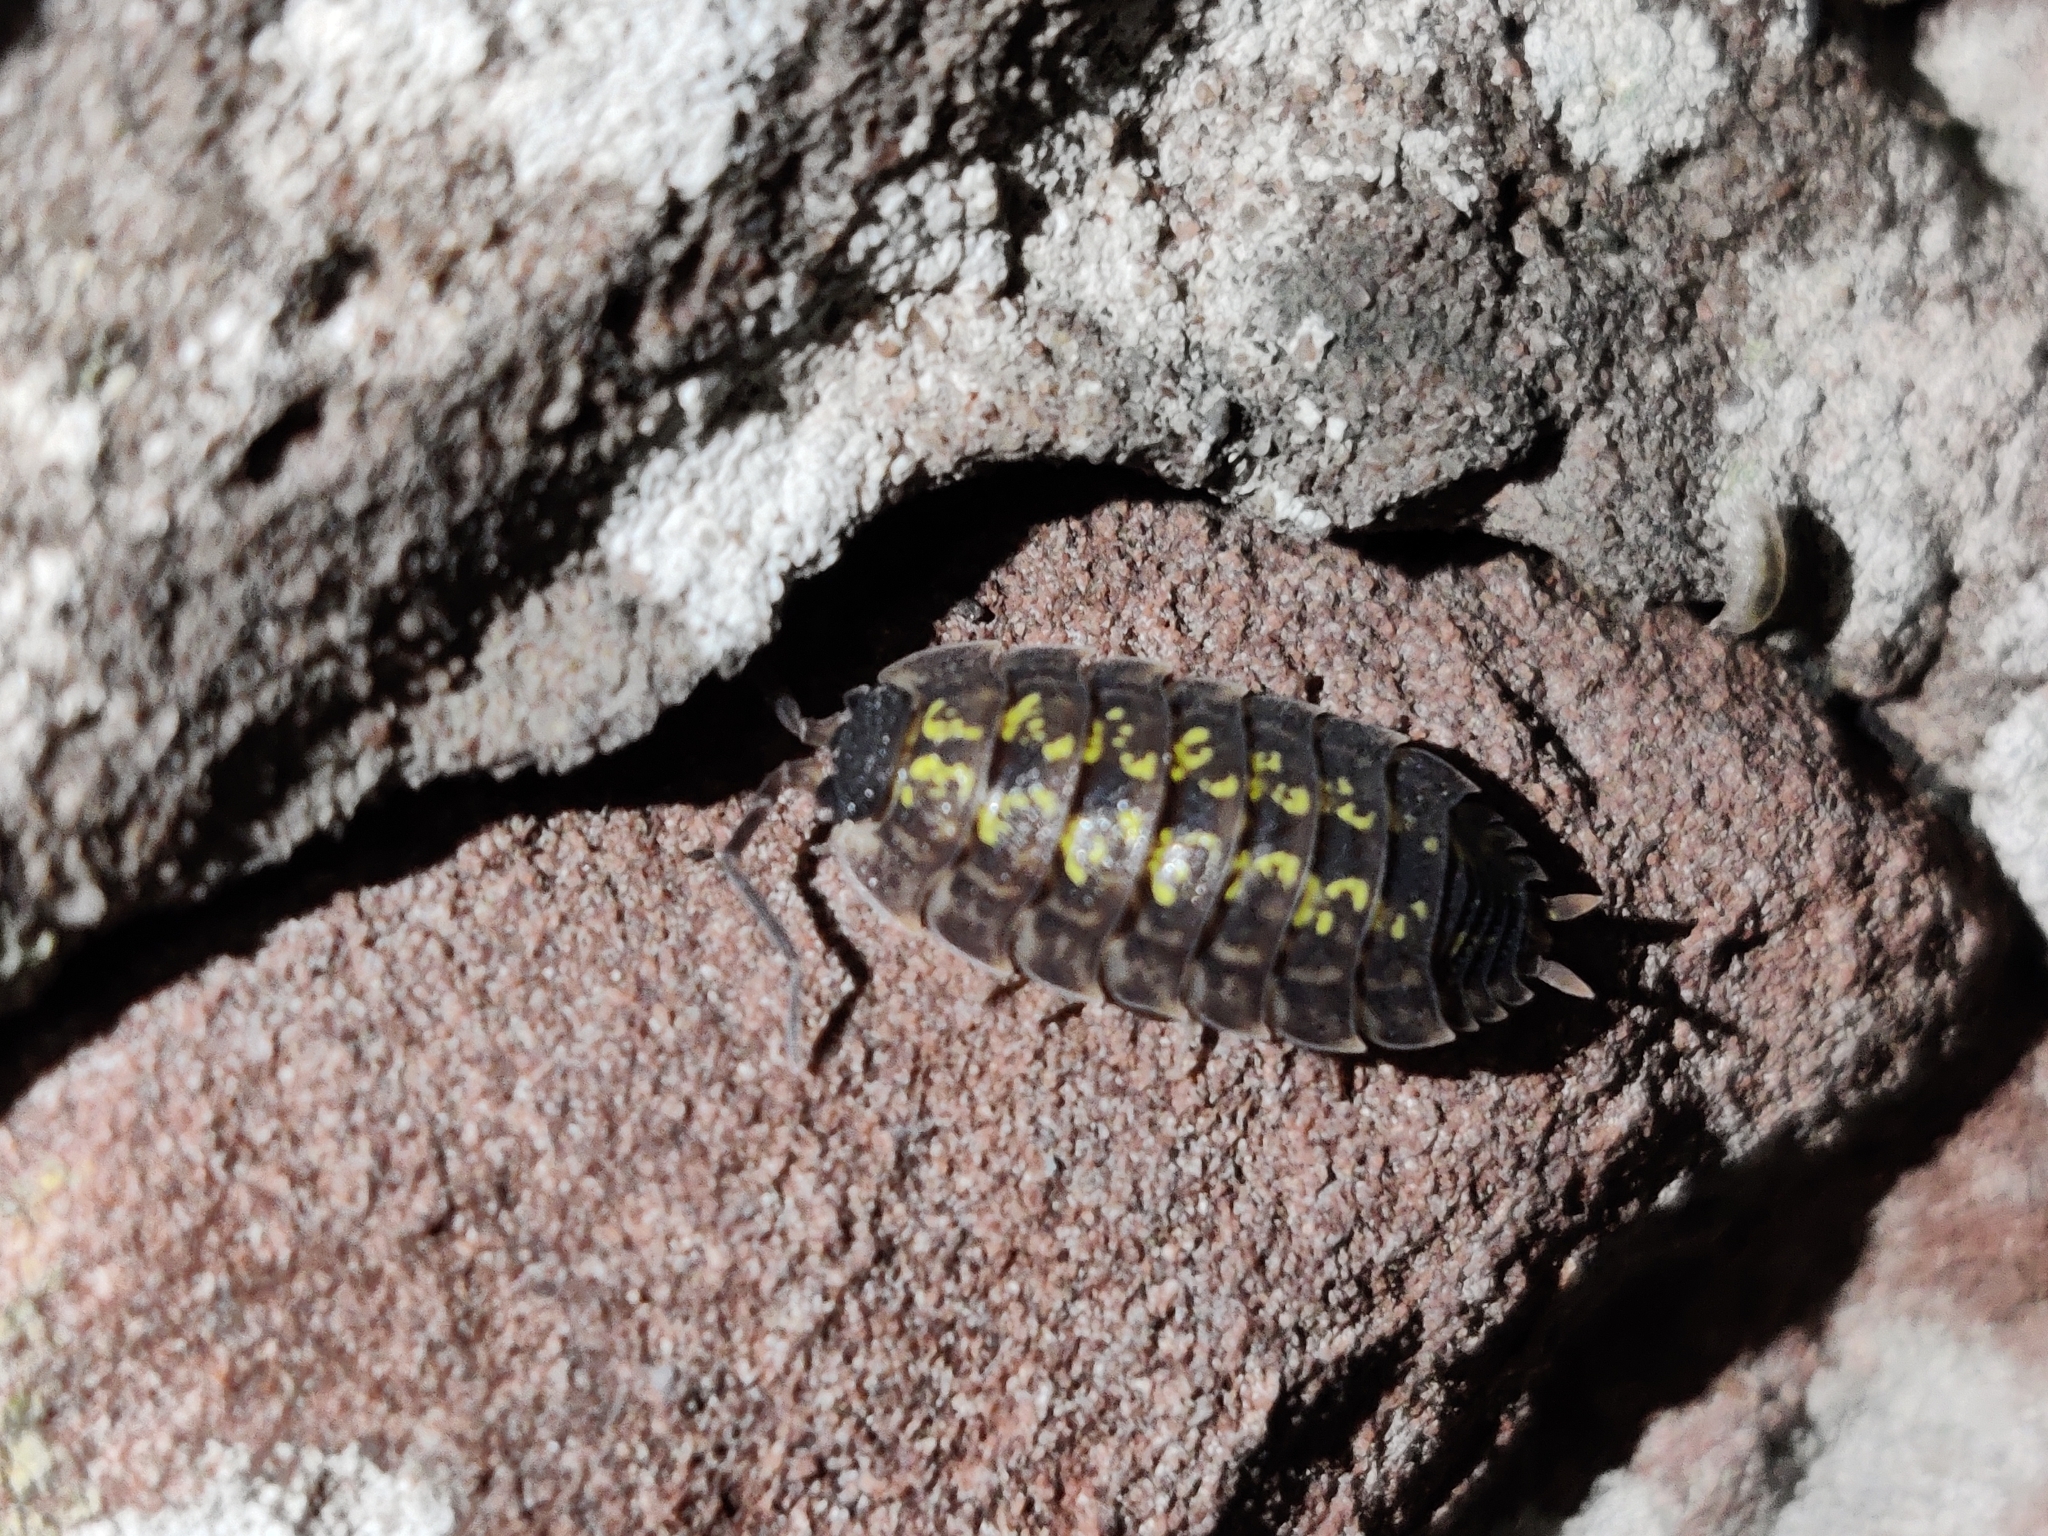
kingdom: Animalia
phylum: Arthropoda
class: Malacostraca
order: Isopoda
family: Porcellionidae
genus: Porcellio
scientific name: Porcellio spinicornis
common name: Painted woodlouse
